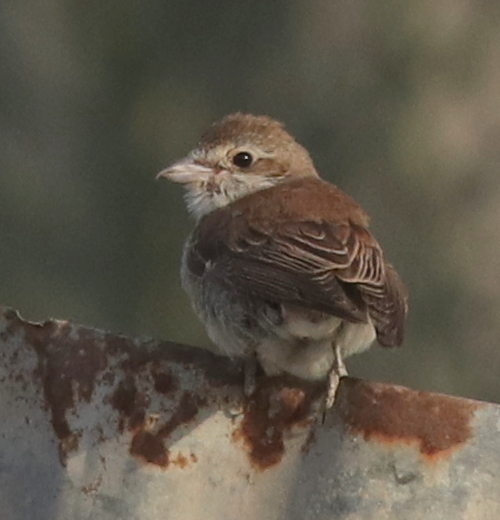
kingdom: Animalia
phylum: Chordata
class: Aves
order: Passeriformes
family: Laniidae
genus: Lanius
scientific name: Lanius collurio
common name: Red-backed shrike
